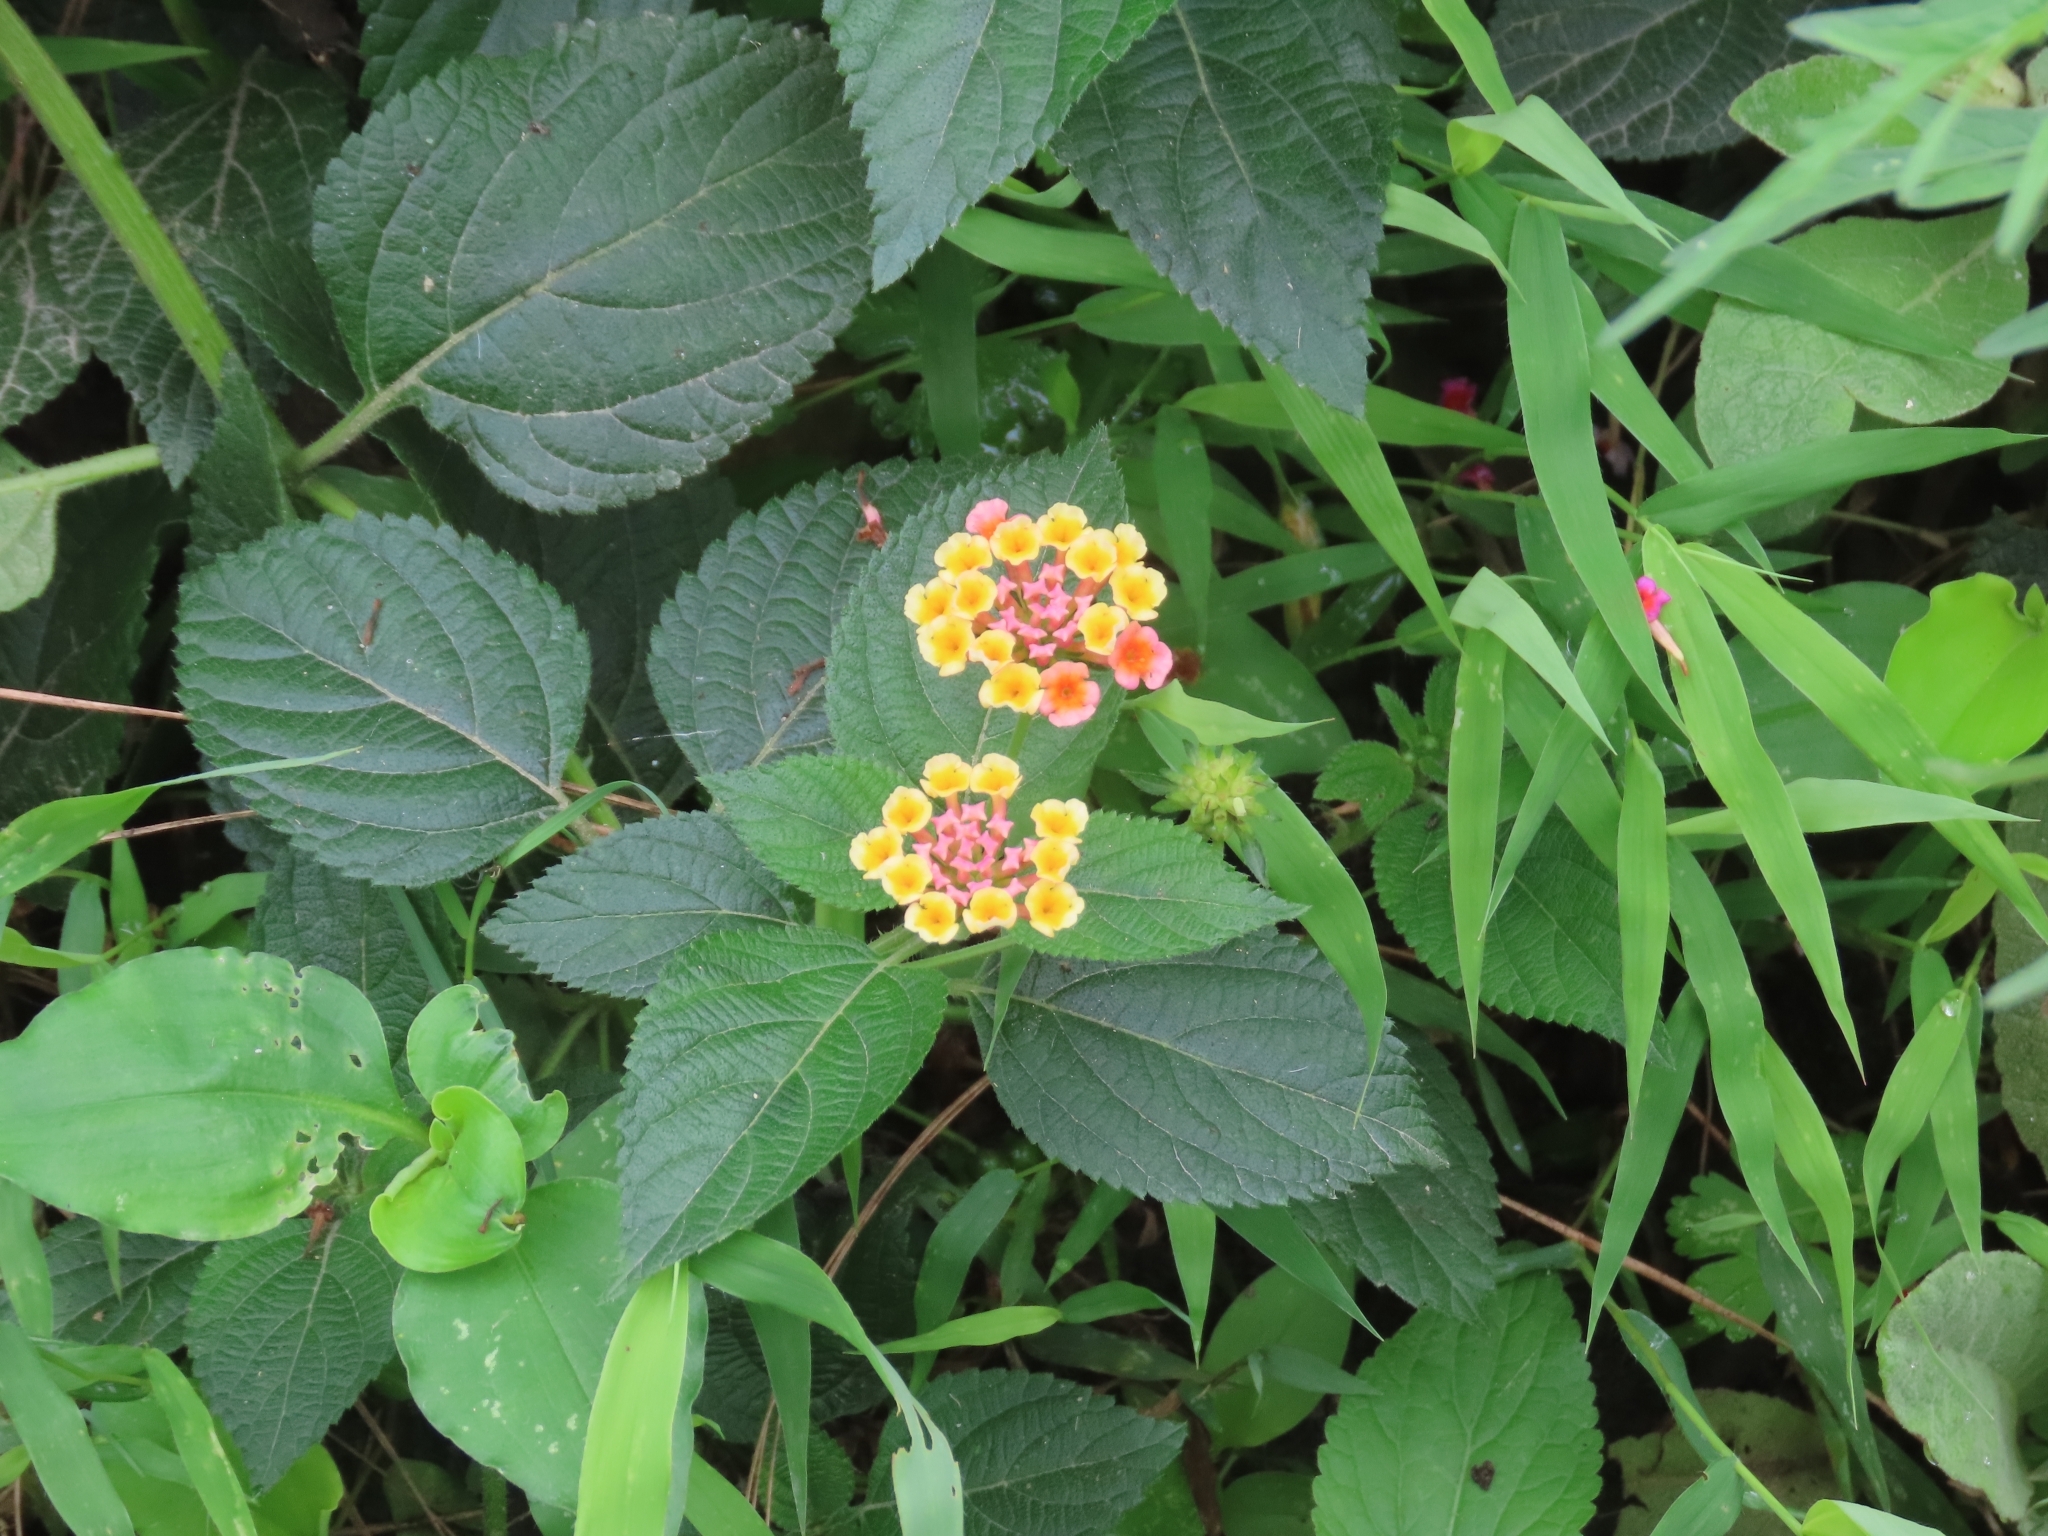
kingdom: Plantae
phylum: Tracheophyta
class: Magnoliopsida
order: Lamiales
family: Verbenaceae
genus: Lantana
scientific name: Lantana camara
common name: Lantana
